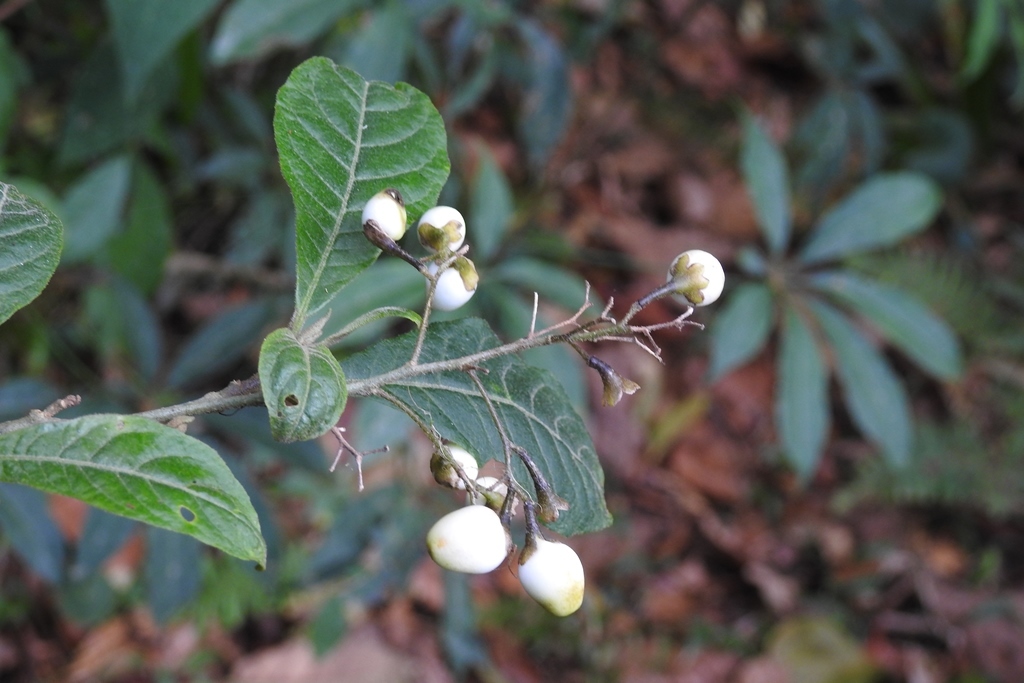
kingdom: Plantae
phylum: Tracheophyta
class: Magnoliopsida
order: Solanales
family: Solanaceae
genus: Cestrum
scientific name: Cestrum guatemalense
